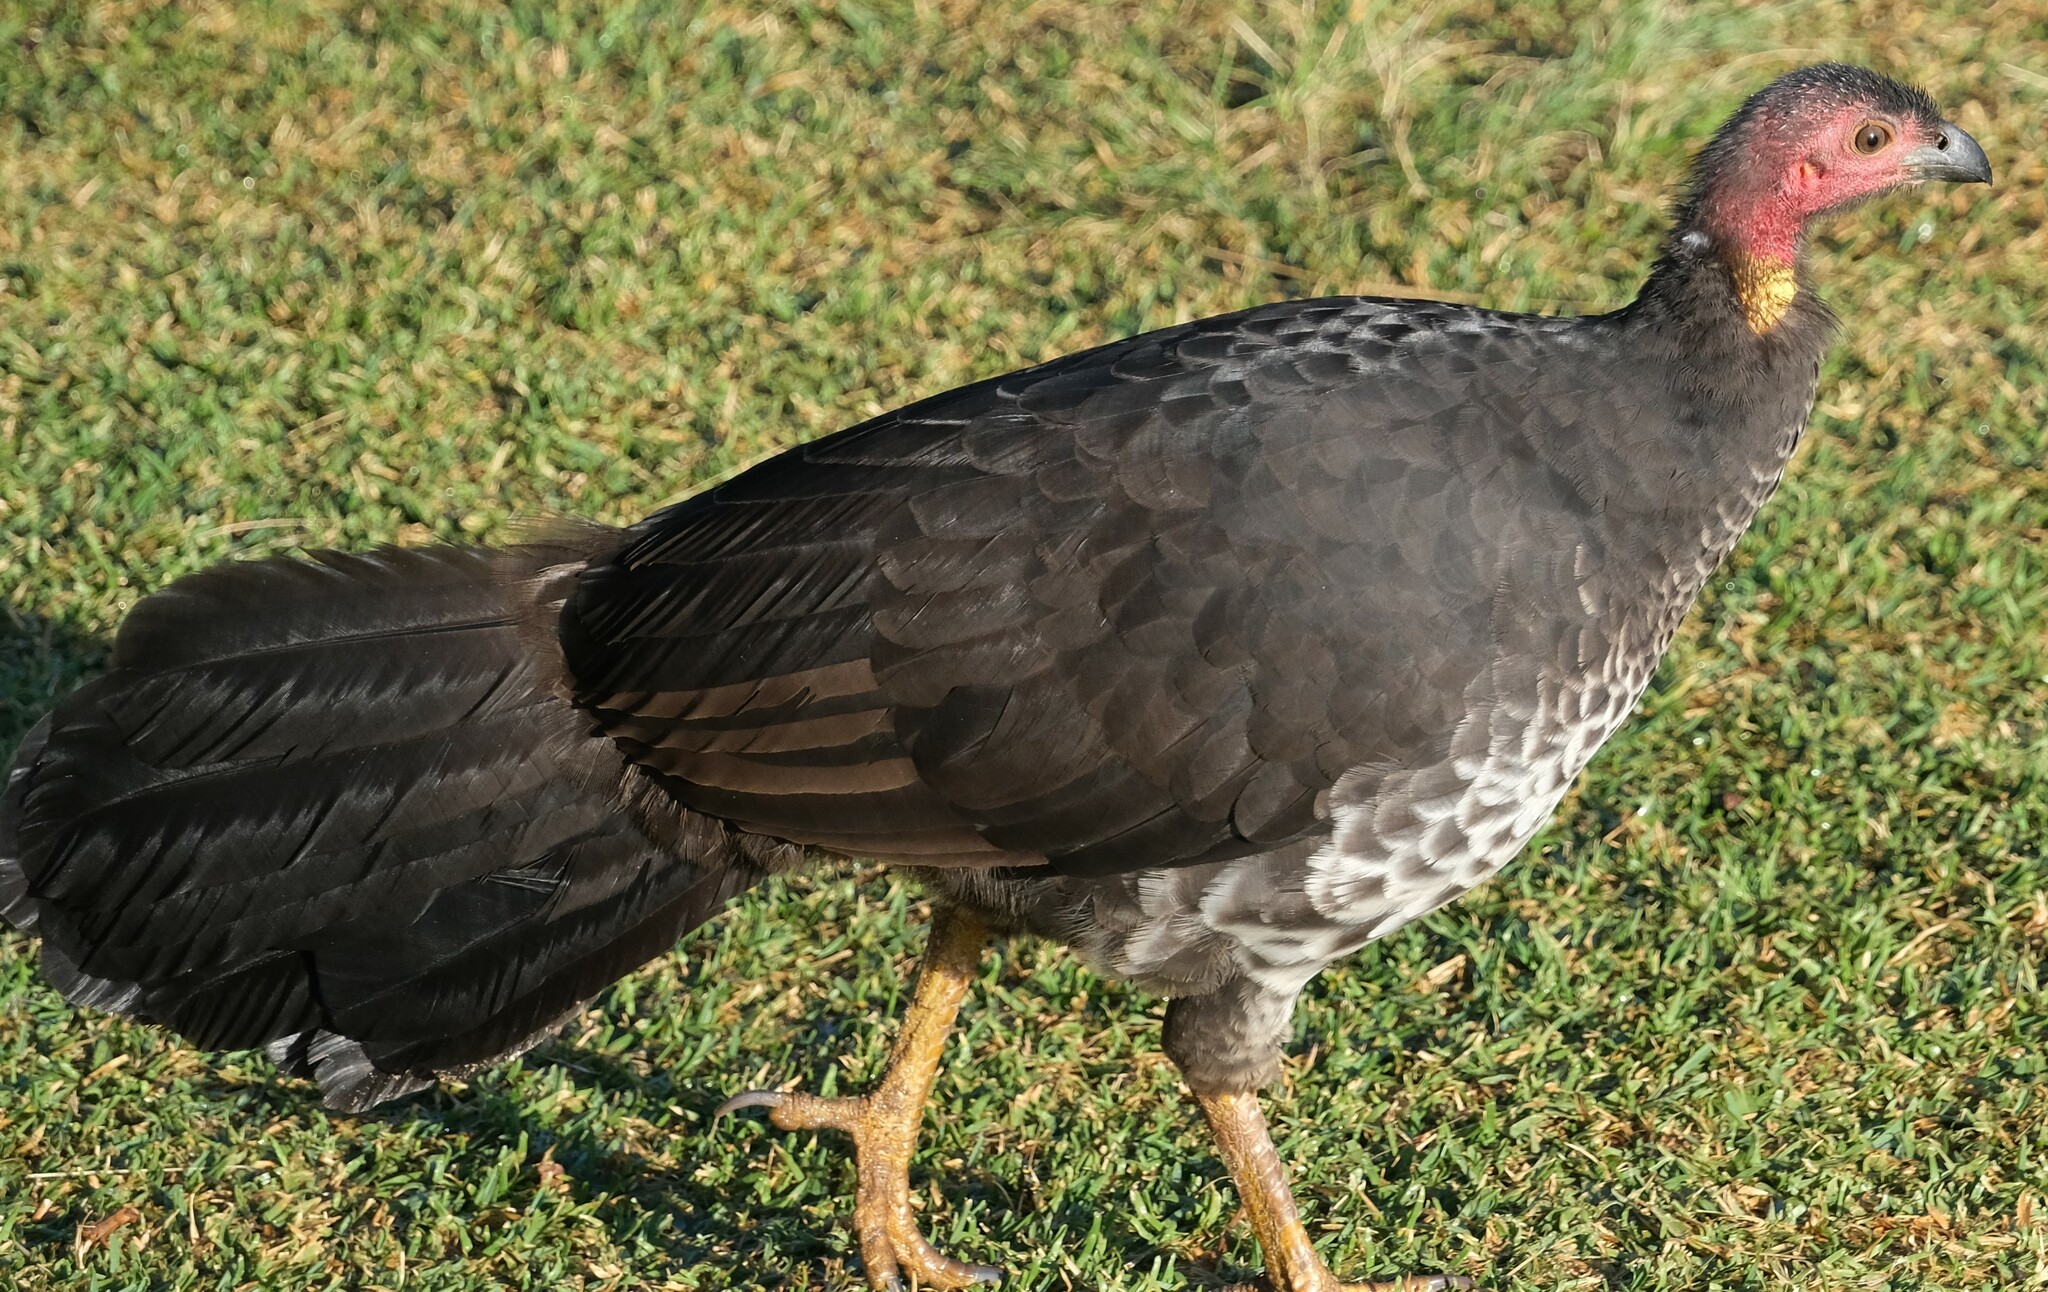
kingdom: Animalia
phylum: Chordata
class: Aves
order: Galliformes
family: Megapodiidae
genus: Alectura
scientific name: Alectura lathami
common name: Australian brushturkey
